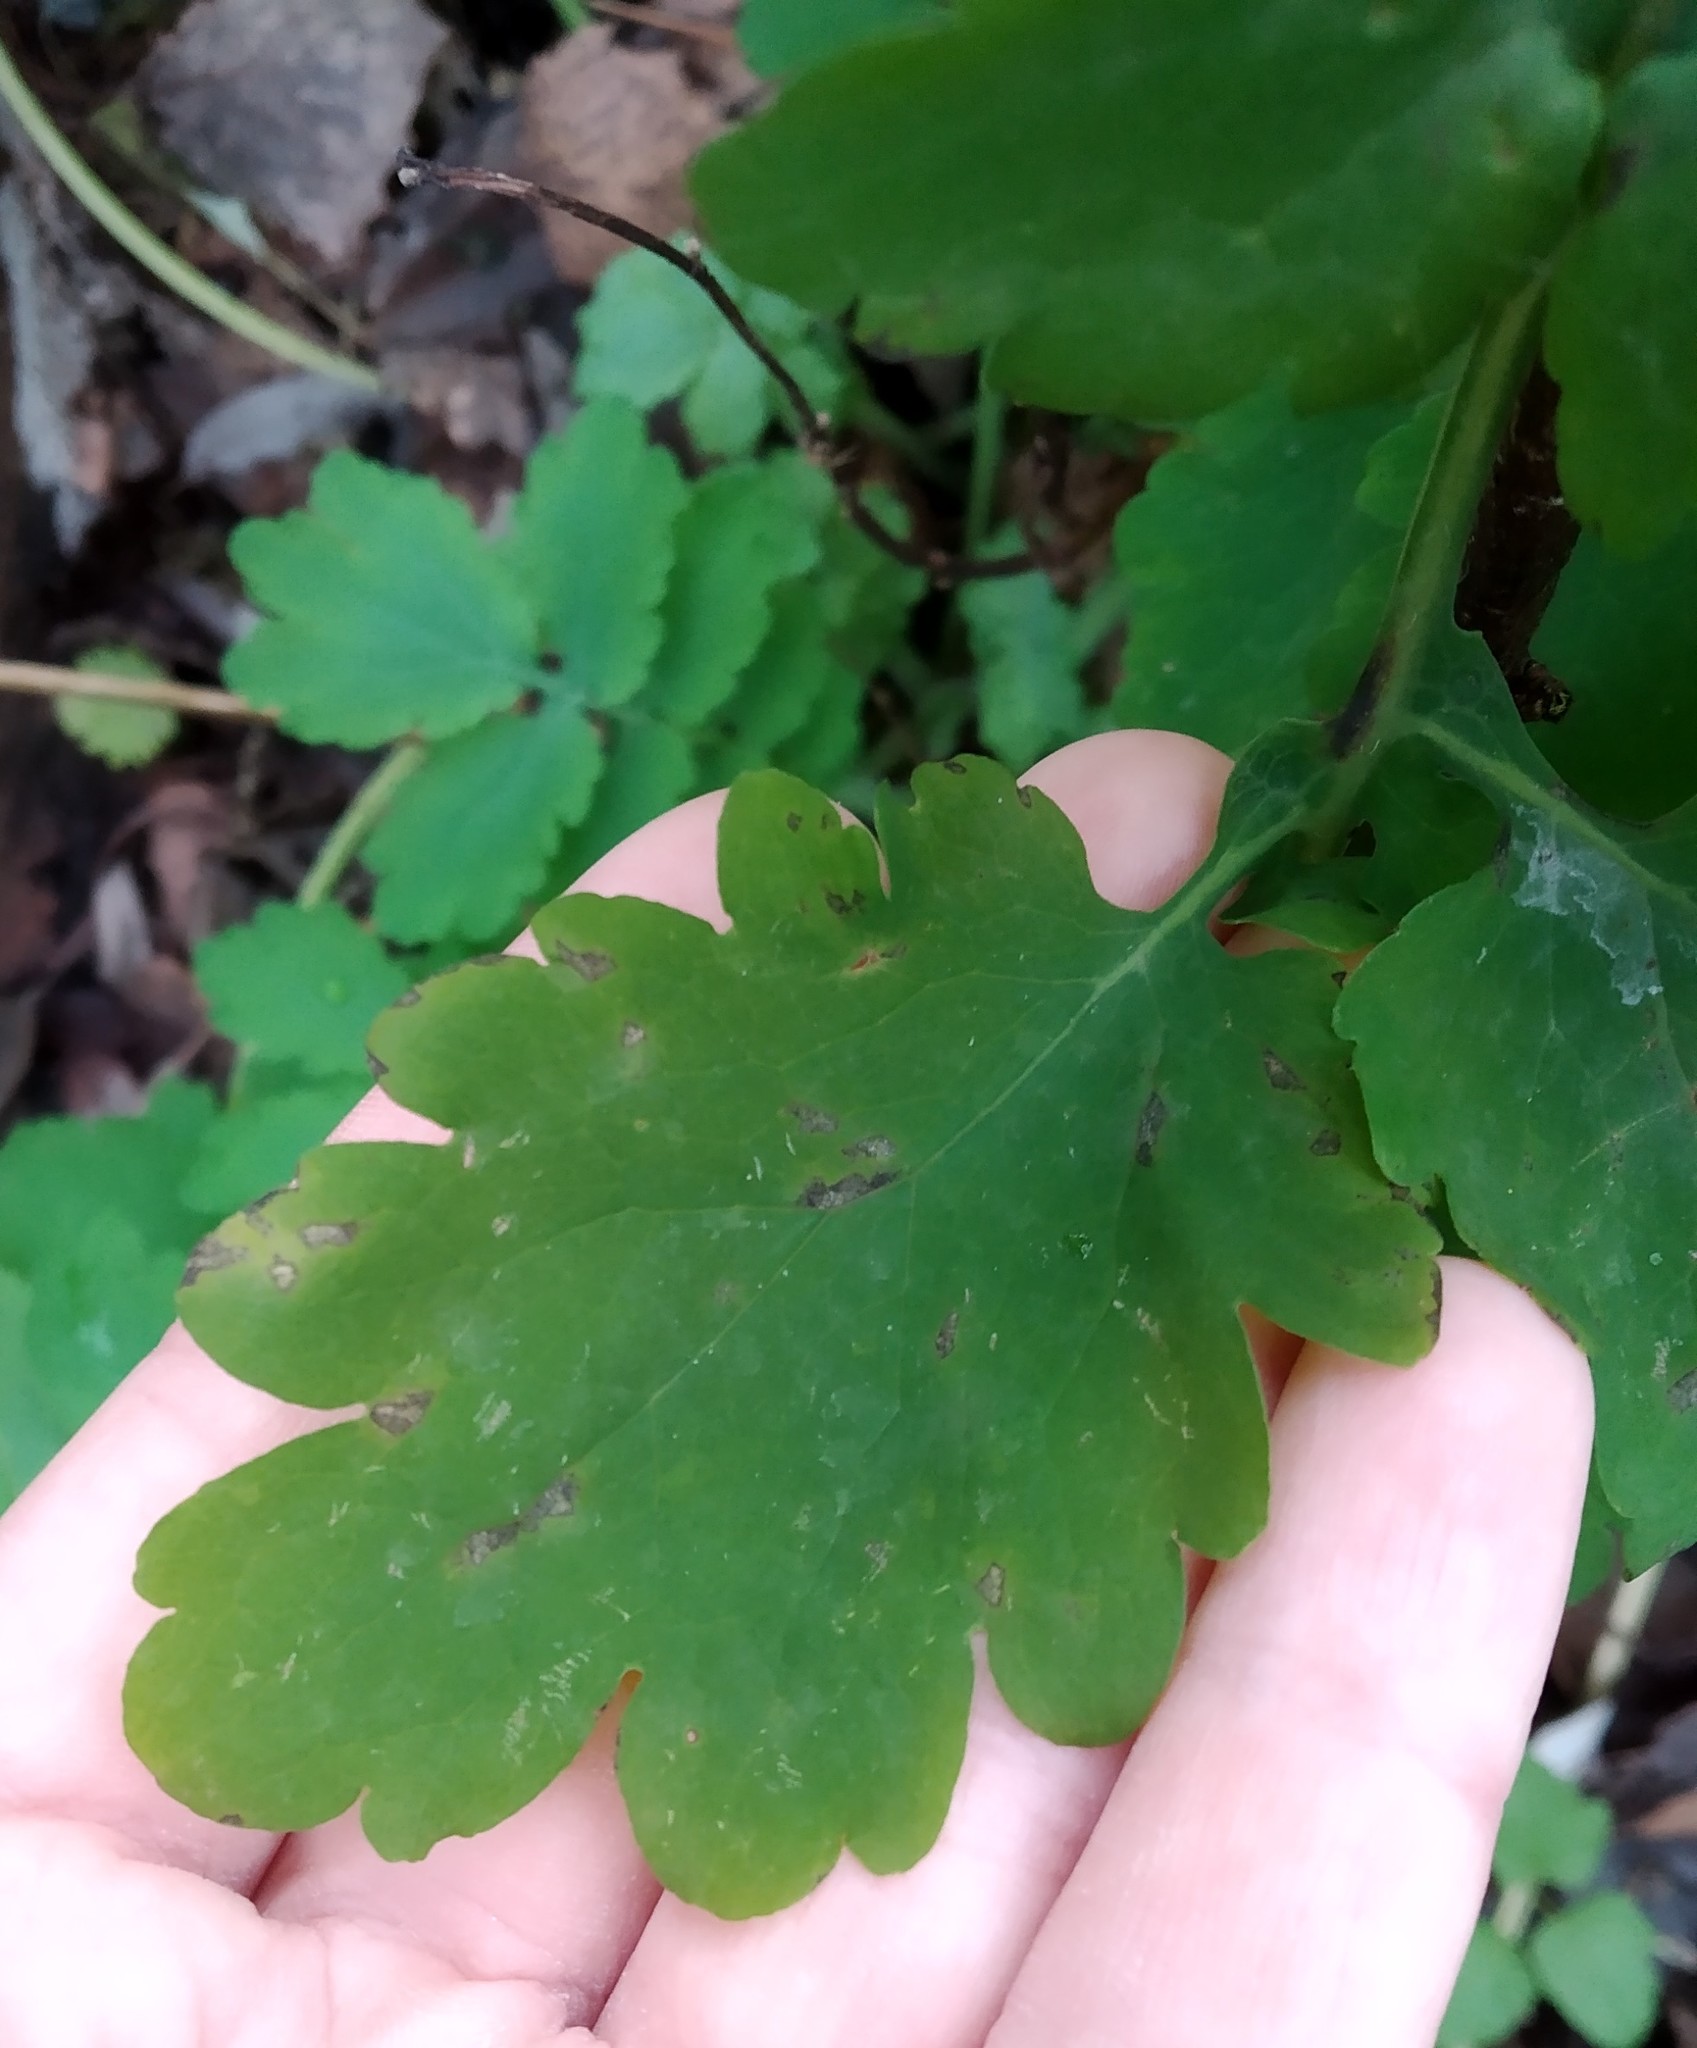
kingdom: Plantae
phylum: Tracheophyta
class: Magnoliopsida
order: Ranunculales
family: Papaveraceae
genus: Chelidonium
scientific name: Chelidonium majus
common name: Greater celandine
